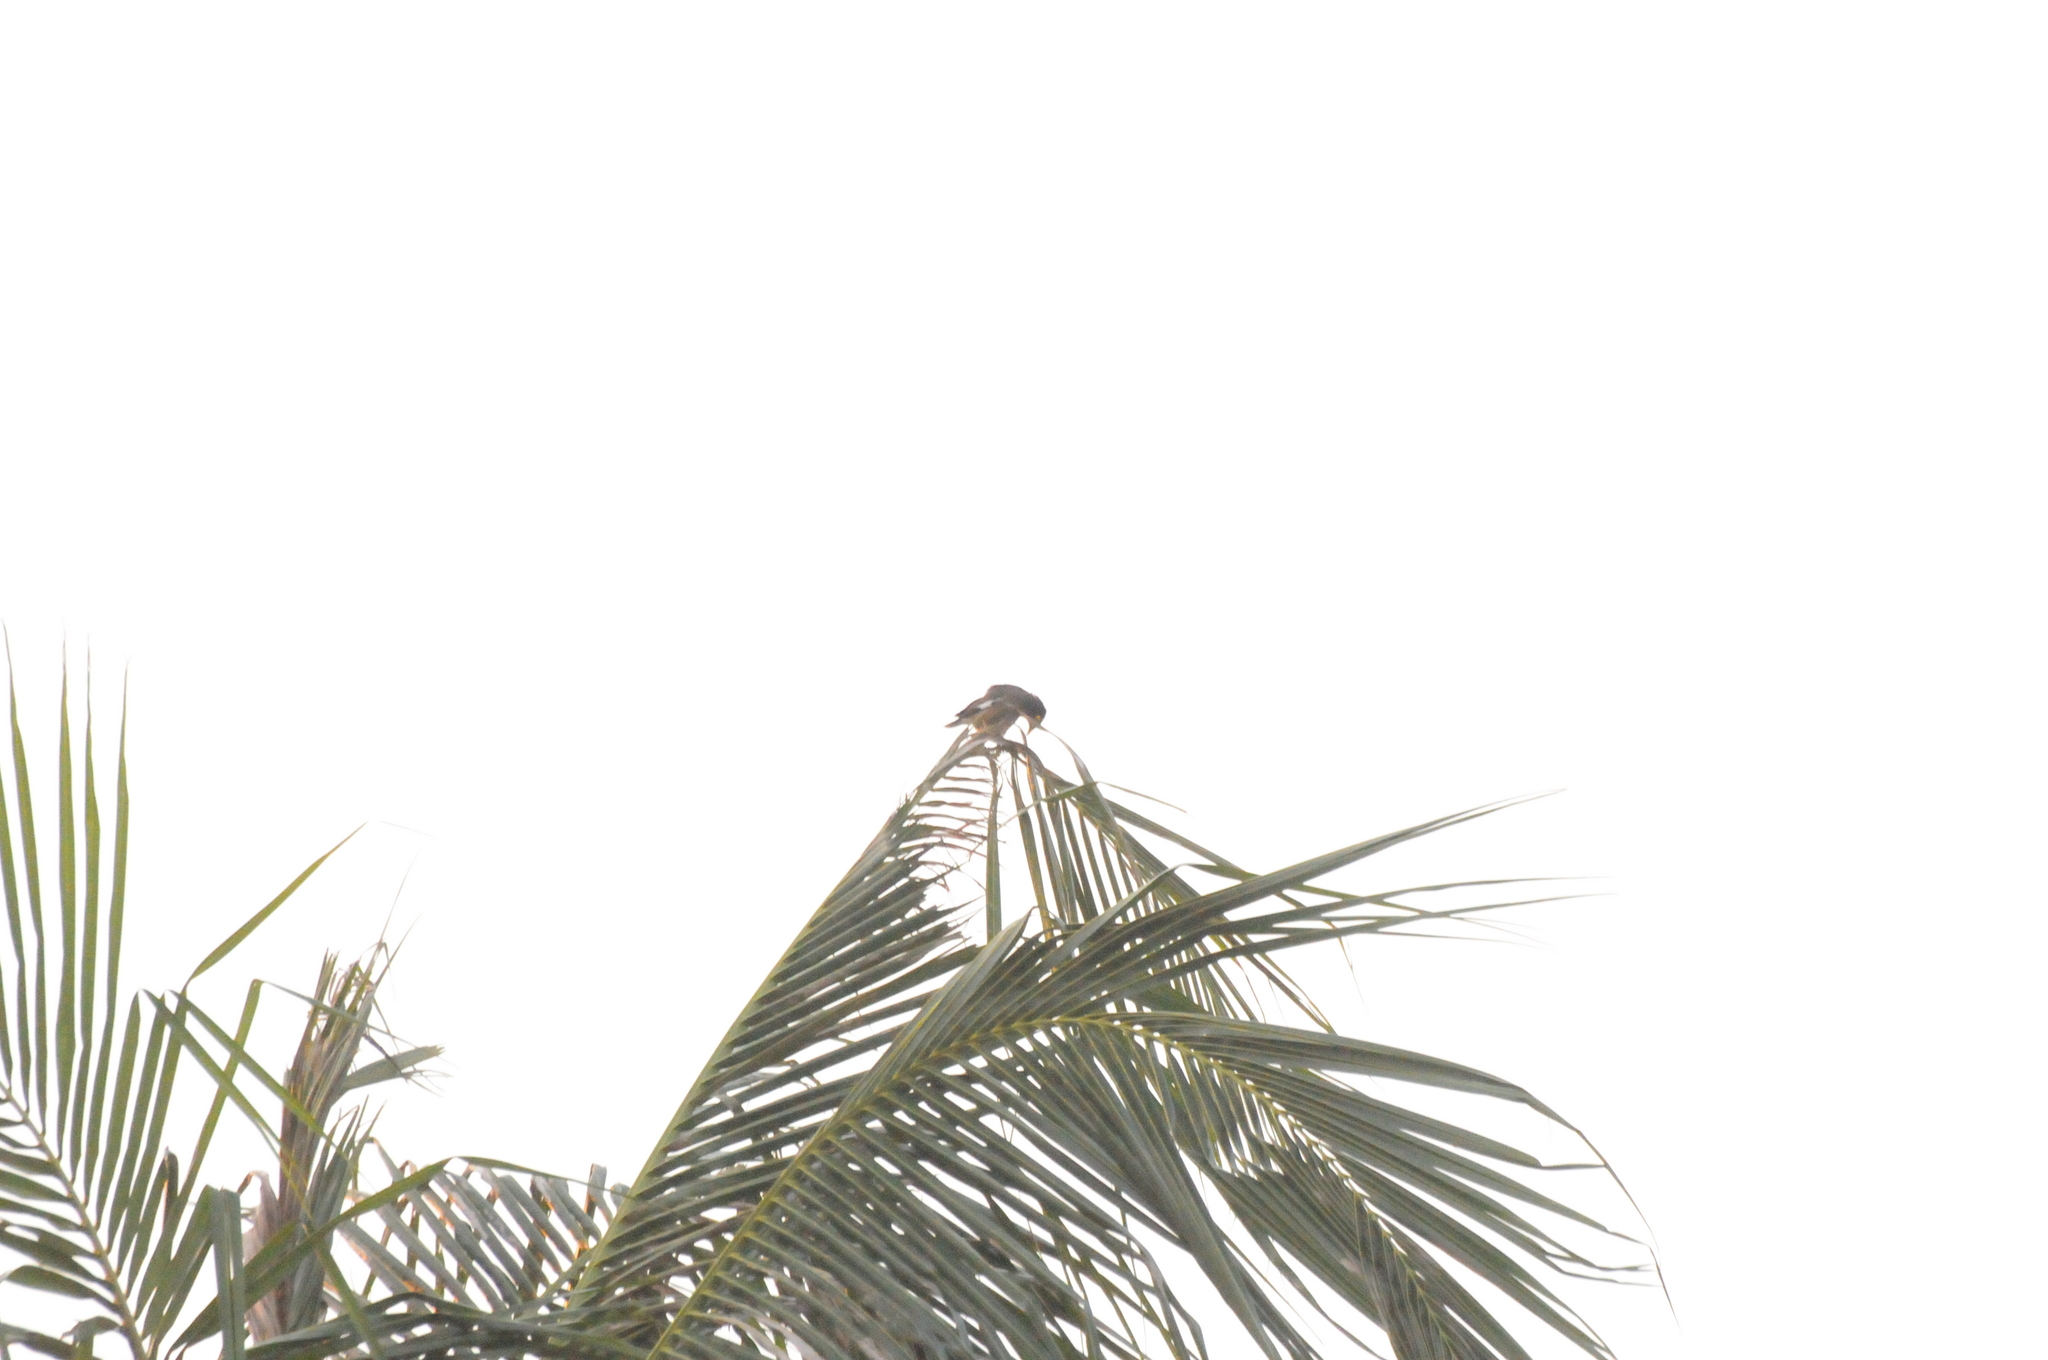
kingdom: Animalia
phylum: Chordata
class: Aves
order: Passeriformes
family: Sturnidae
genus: Acridotheres
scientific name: Acridotheres tristis
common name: Common myna
